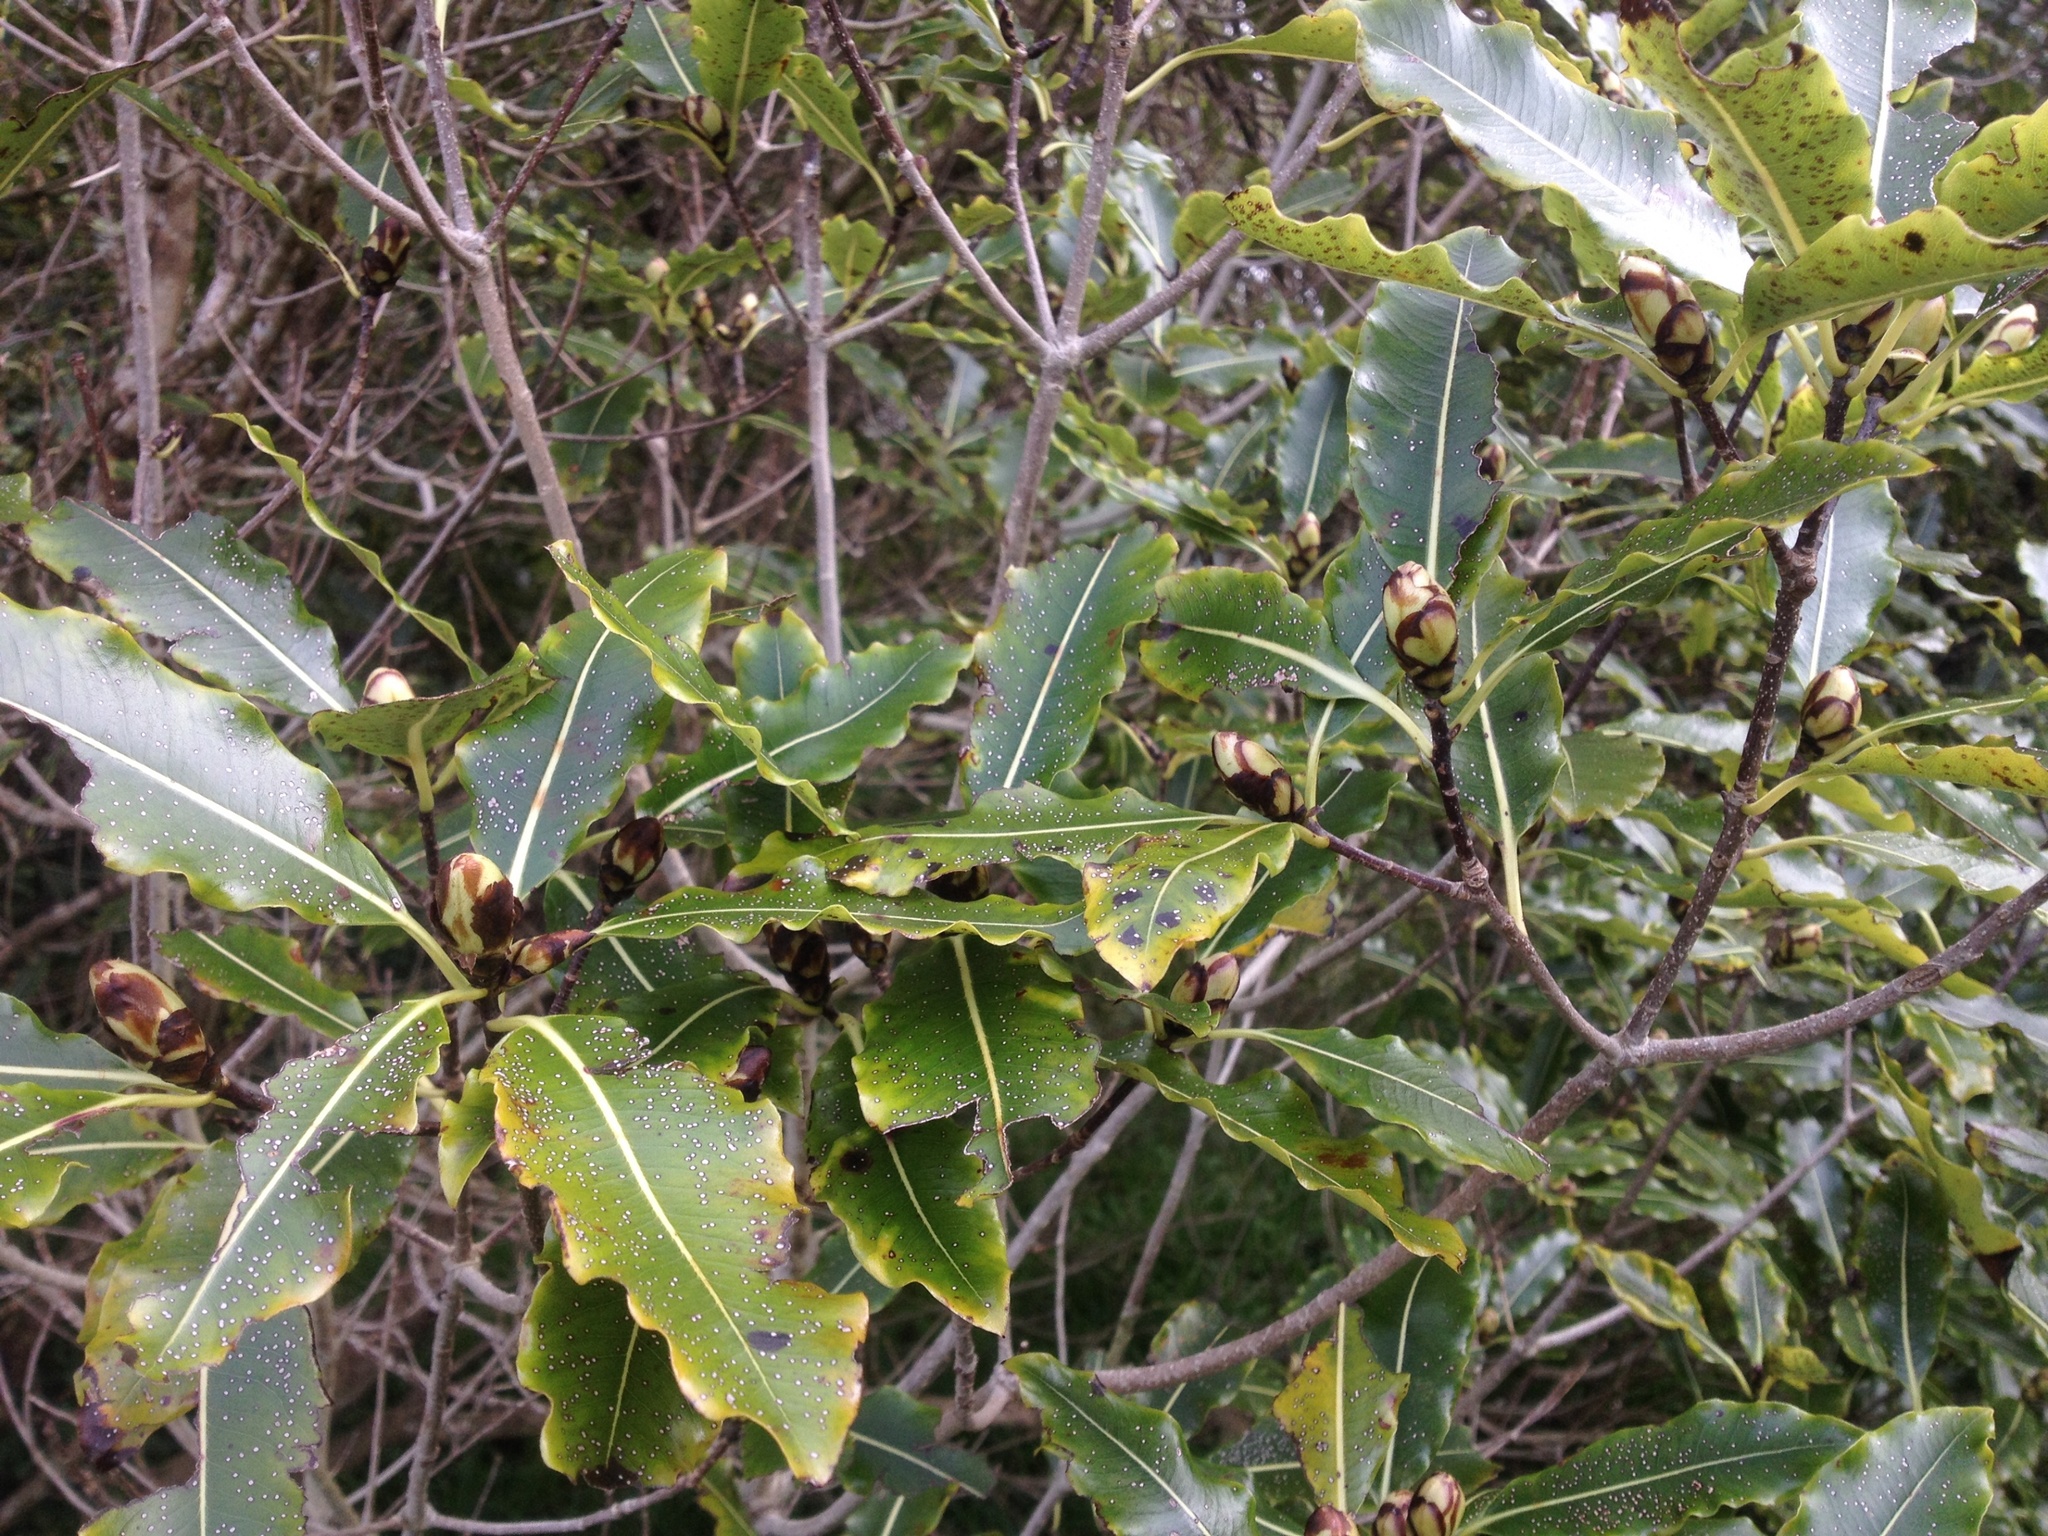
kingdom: Plantae
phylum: Tracheophyta
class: Magnoliopsida
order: Apiales
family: Pittosporaceae
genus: Pittosporum
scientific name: Pittosporum eugenioides
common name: Lemonwood
